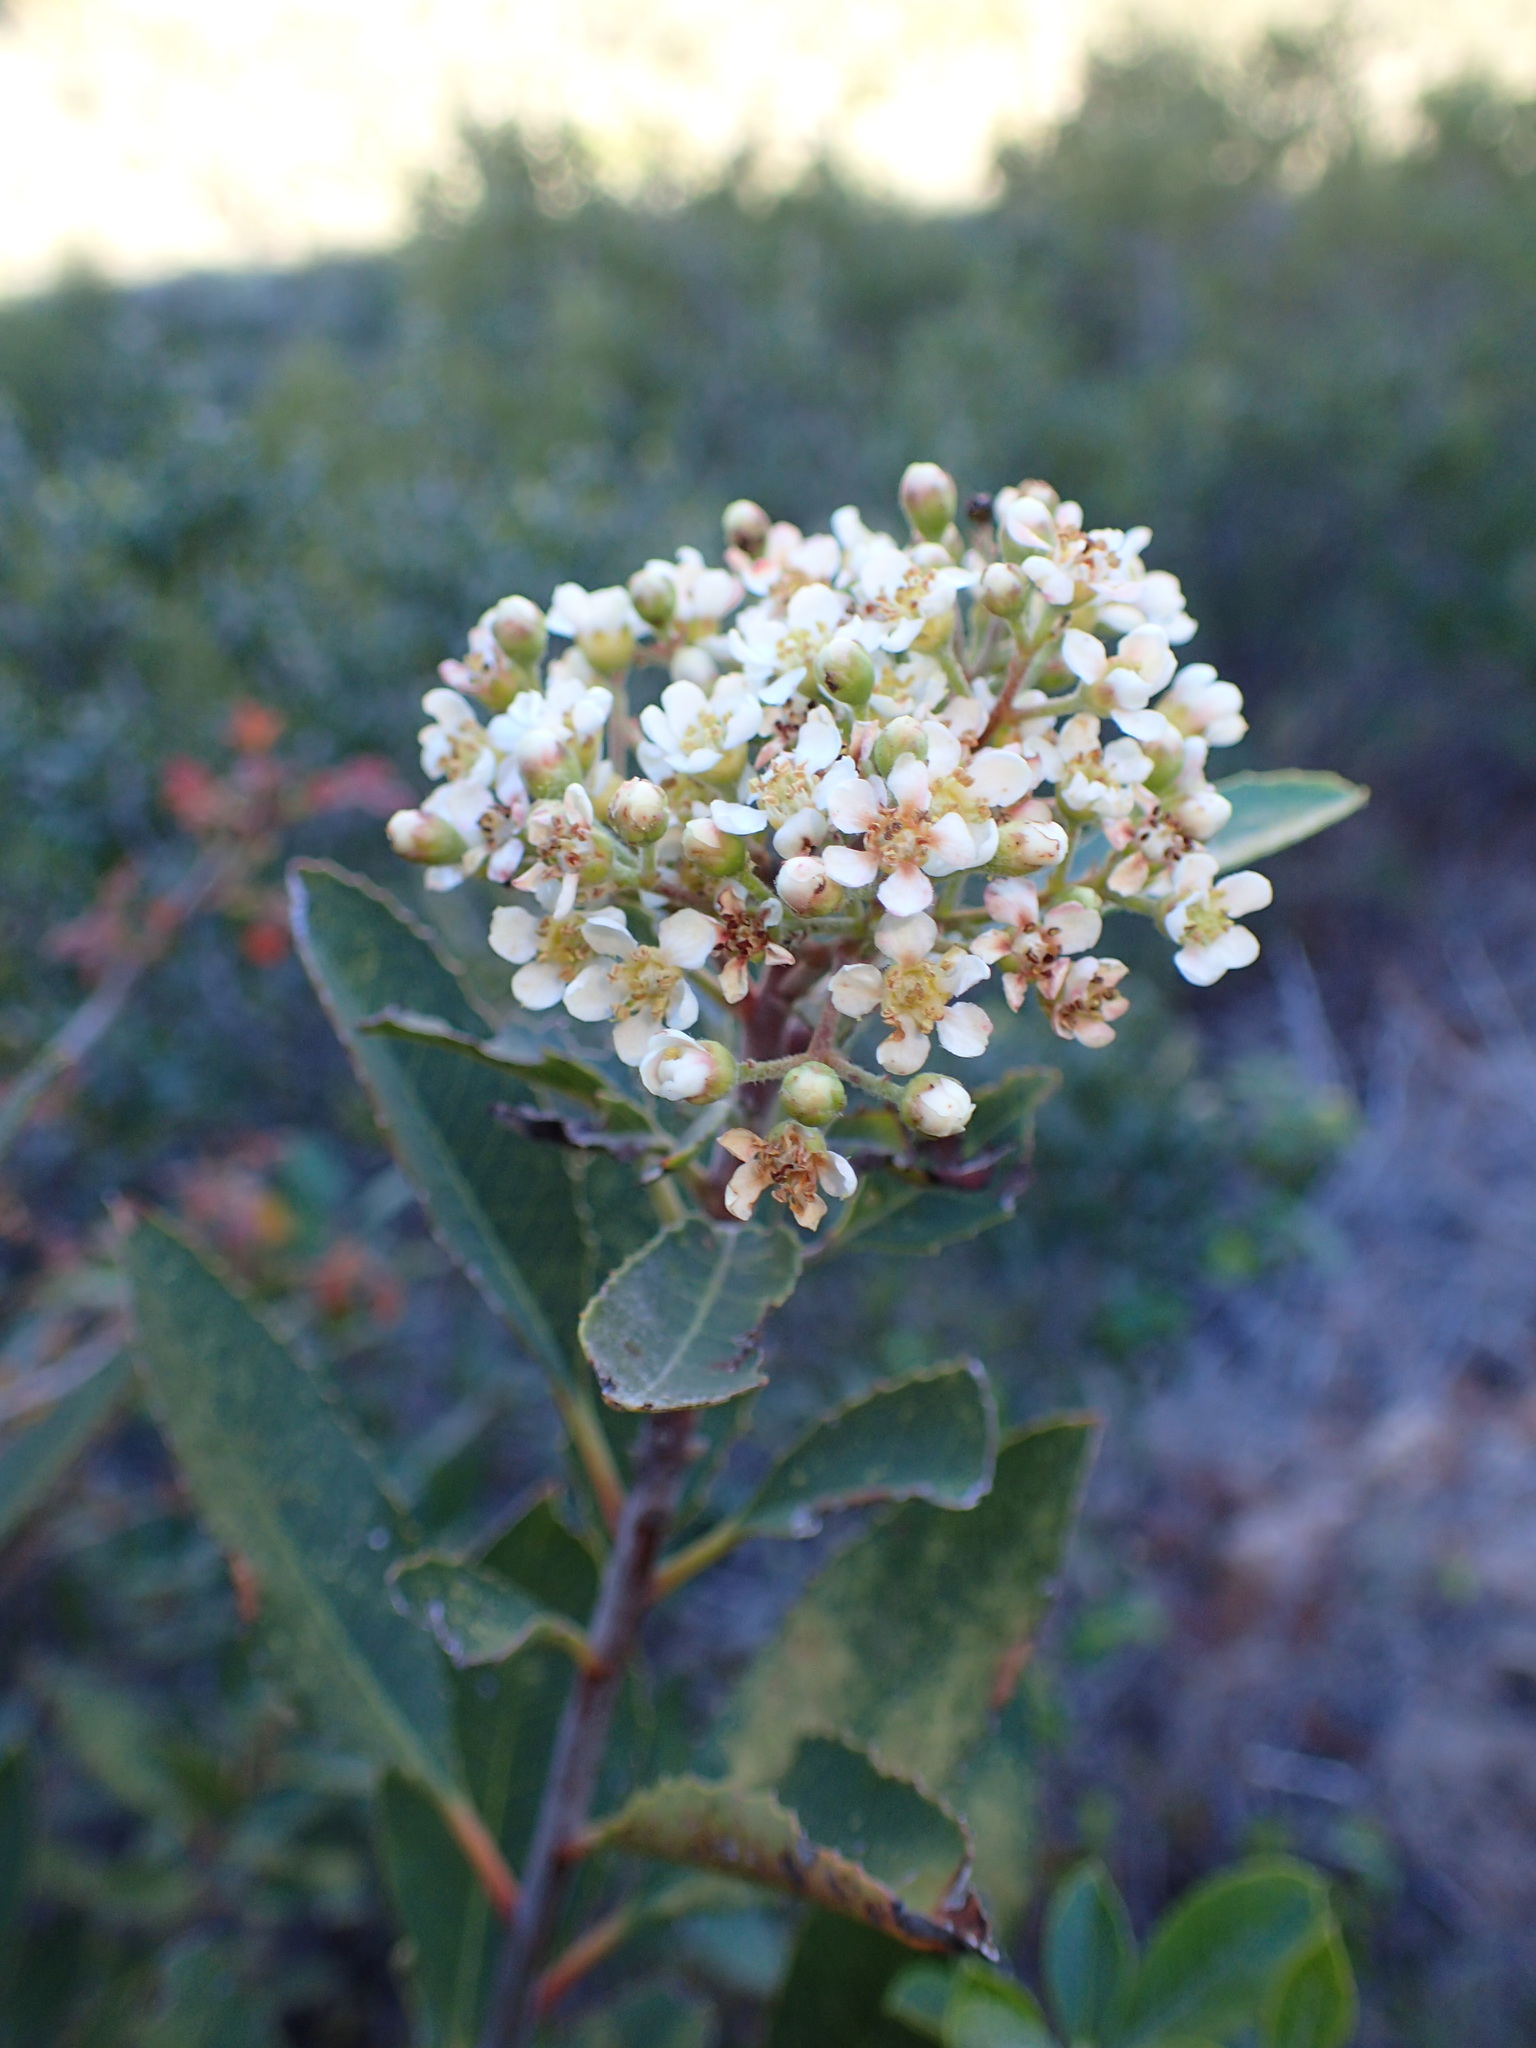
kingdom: Plantae
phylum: Tracheophyta
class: Magnoliopsida
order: Rosales
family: Rosaceae
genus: Heteromeles
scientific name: Heteromeles arbutifolia
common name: California-holly
